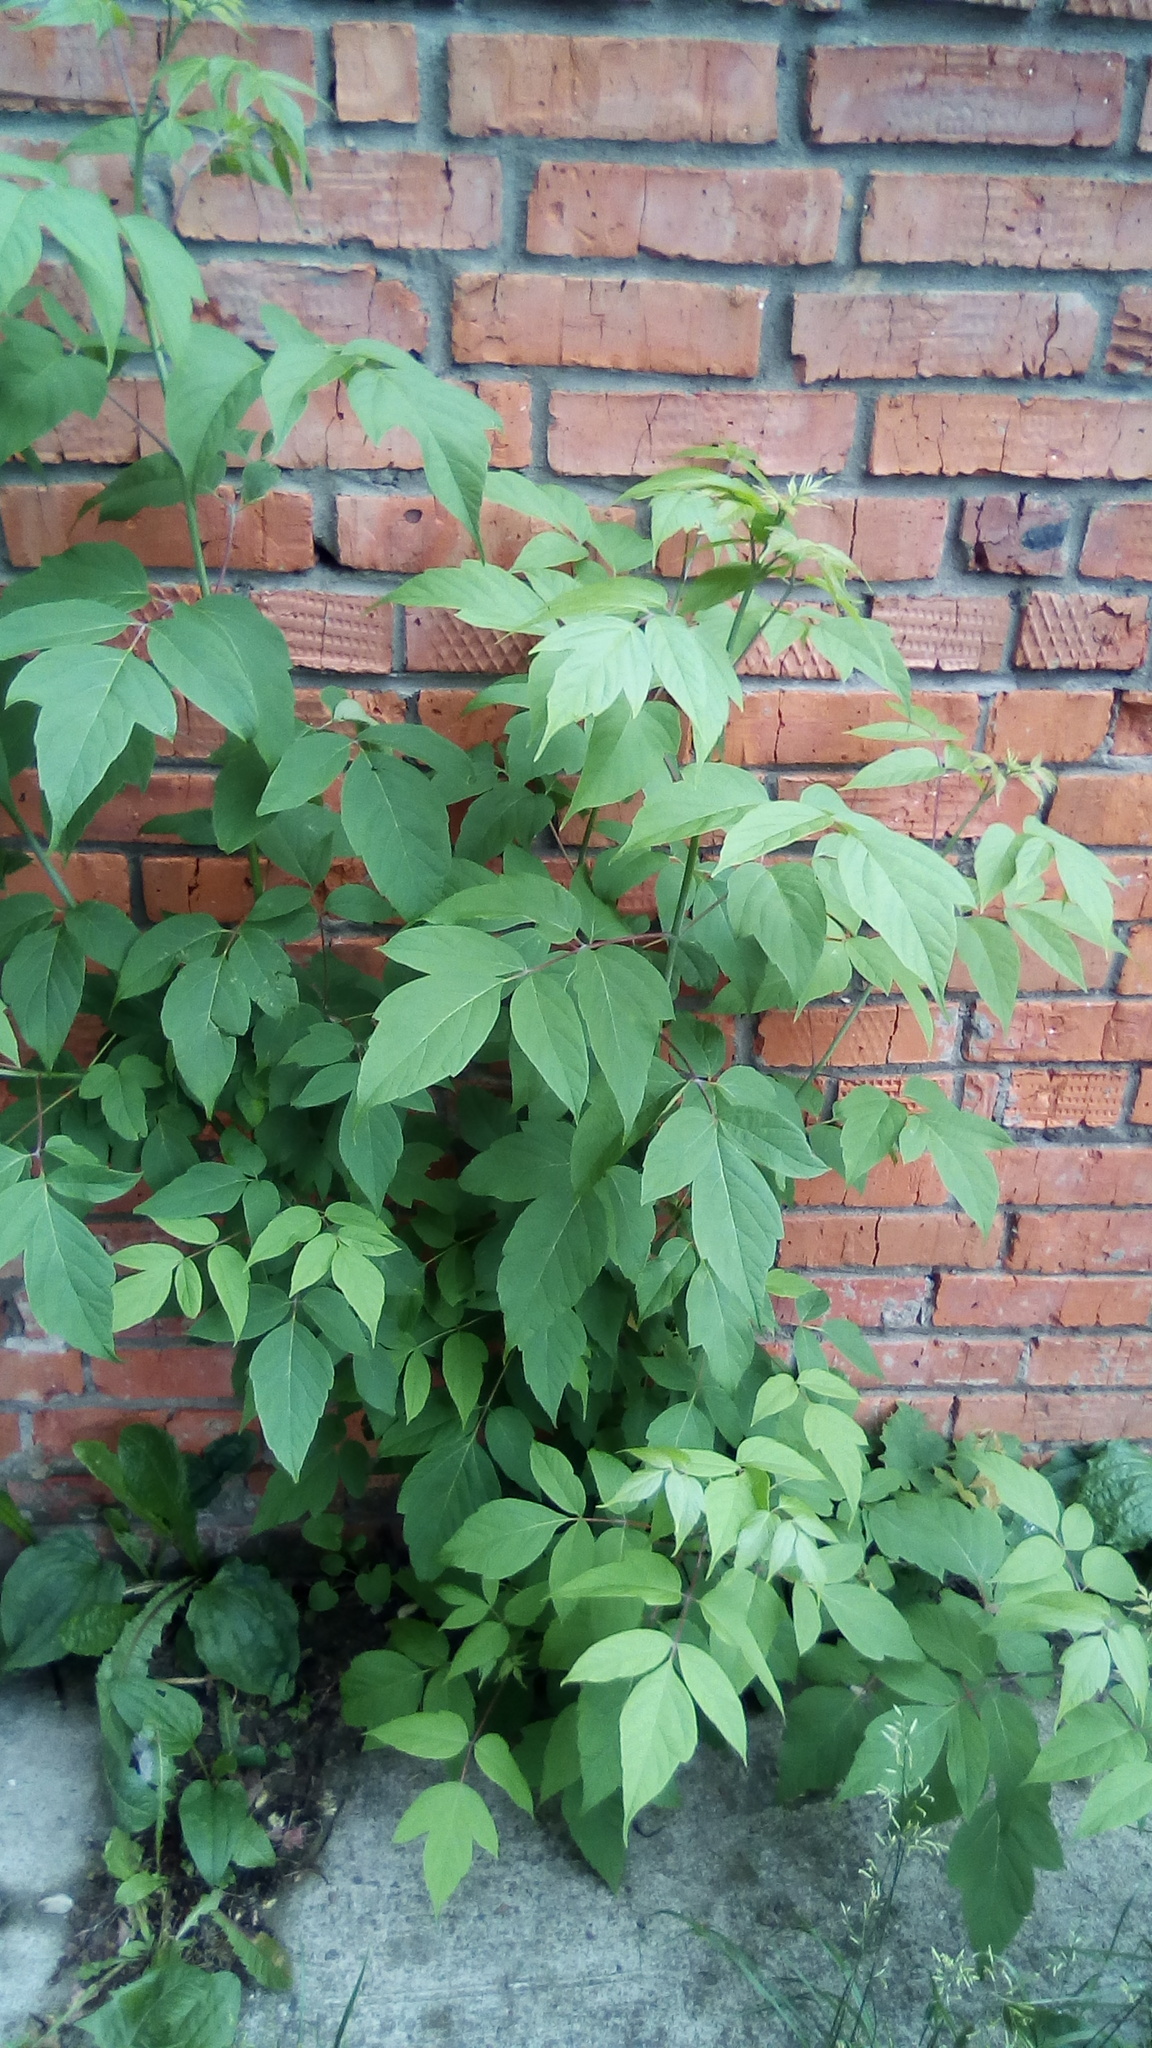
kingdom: Plantae
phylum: Tracheophyta
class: Magnoliopsida
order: Sapindales
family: Sapindaceae
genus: Acer
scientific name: Acer negundo
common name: Ashleaf maple
